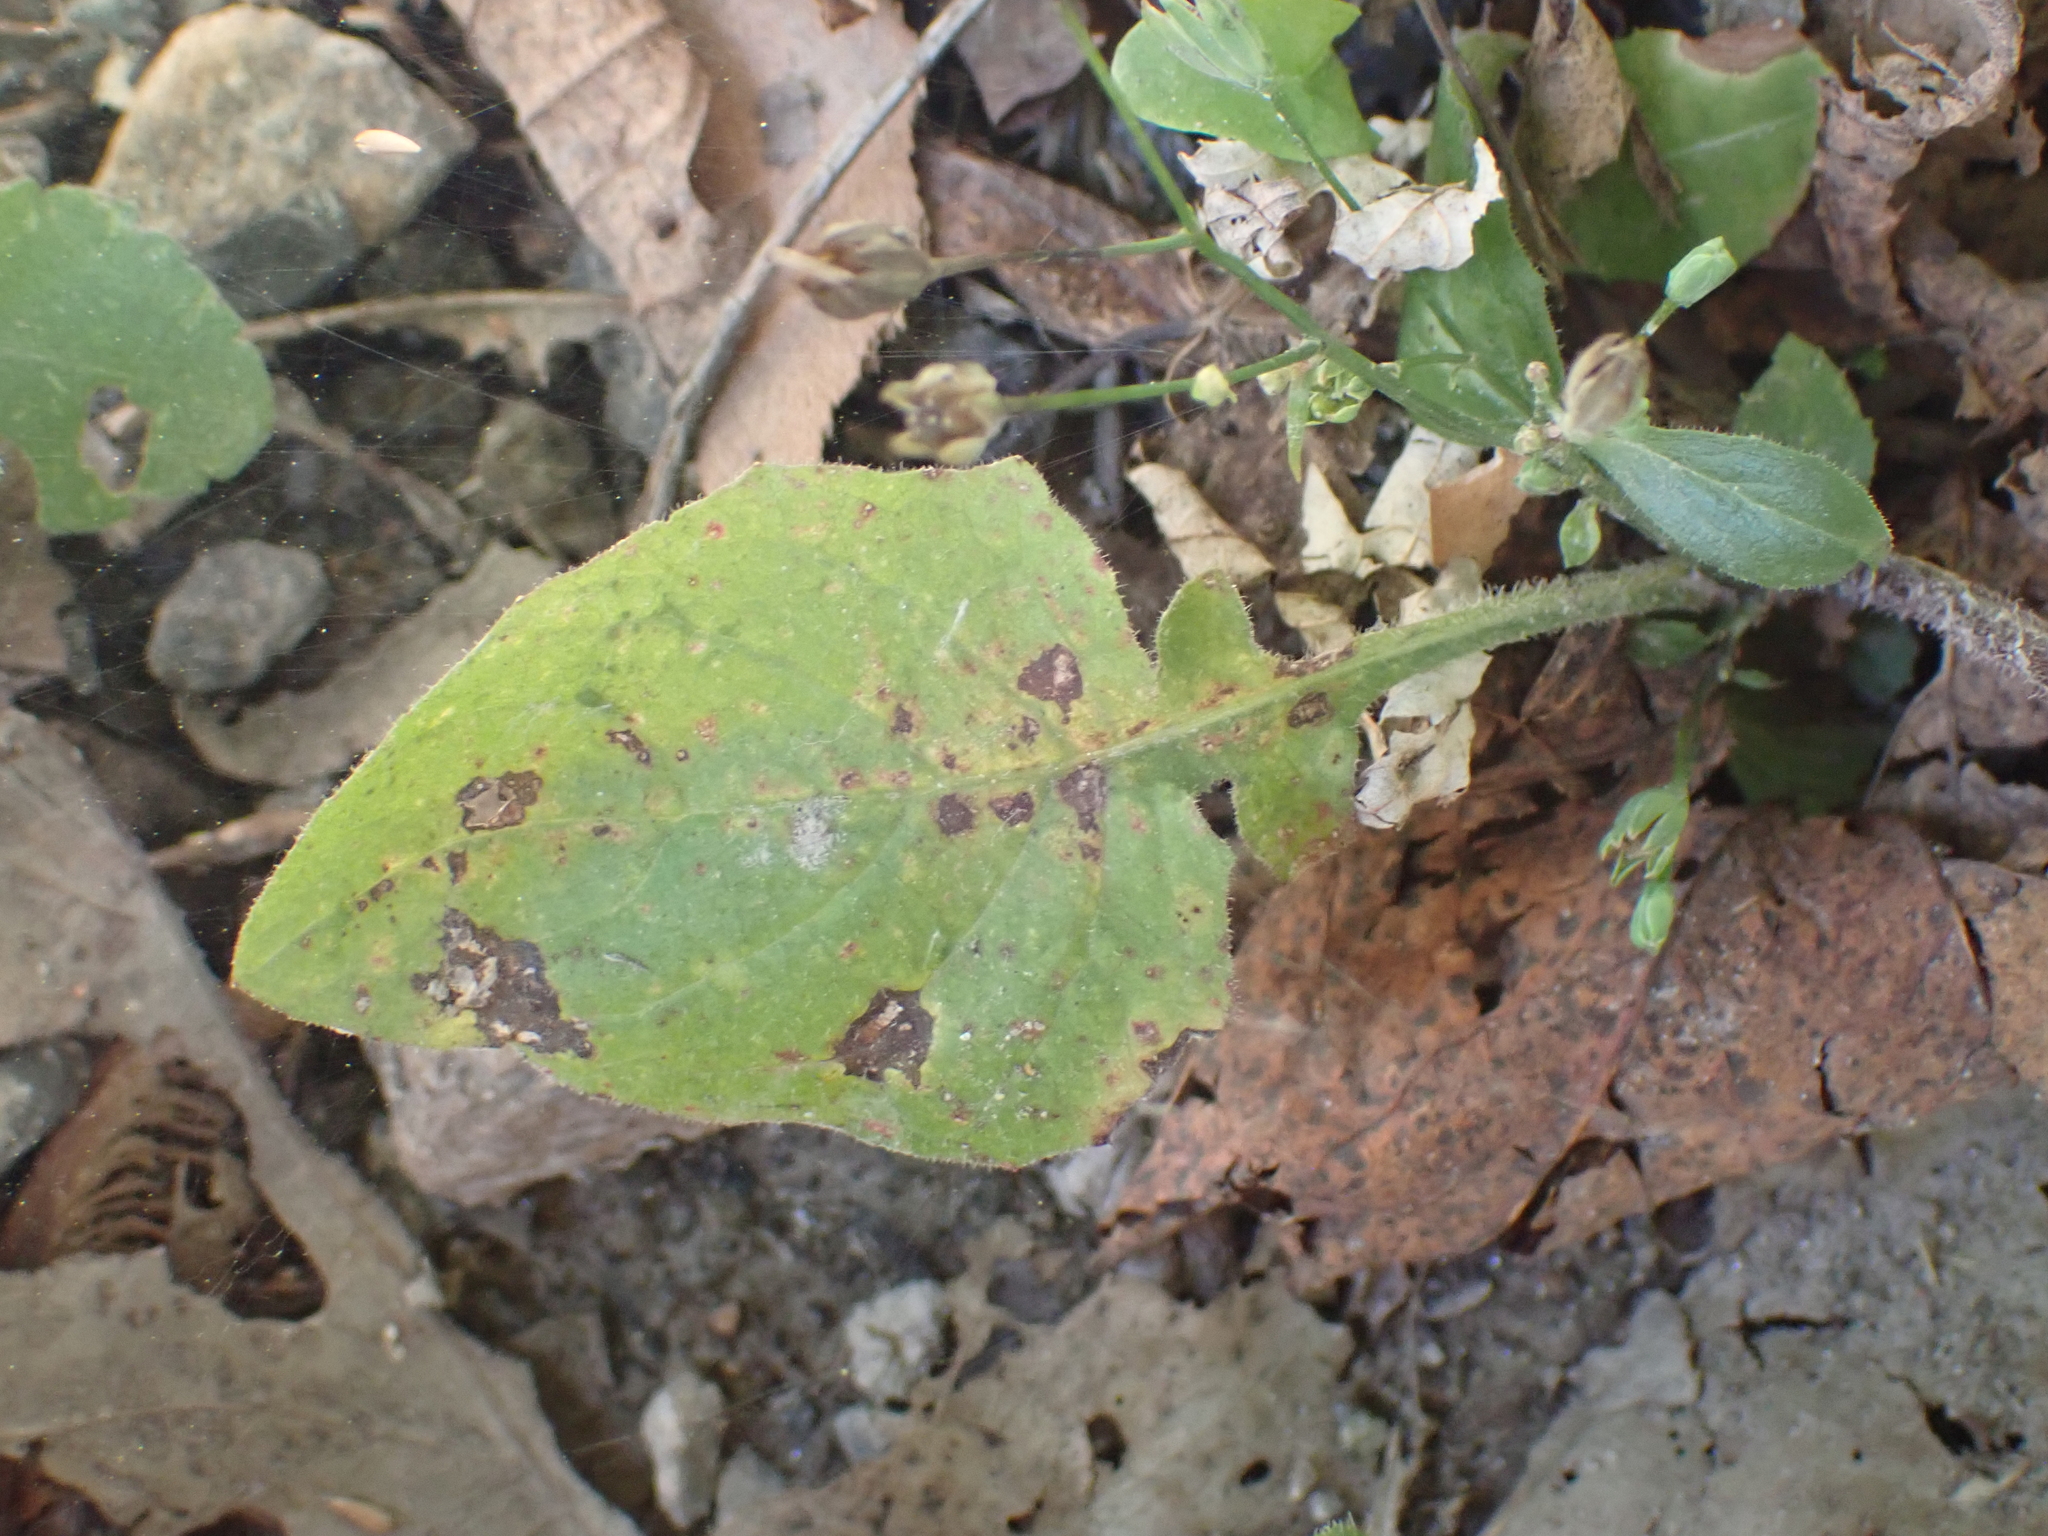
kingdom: Plantae
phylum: Tracheophyta
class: Magnoliopsida
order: Asterales
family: Asteraceae
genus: Lapsana
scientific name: Lapsana communis
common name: Nipplewort
